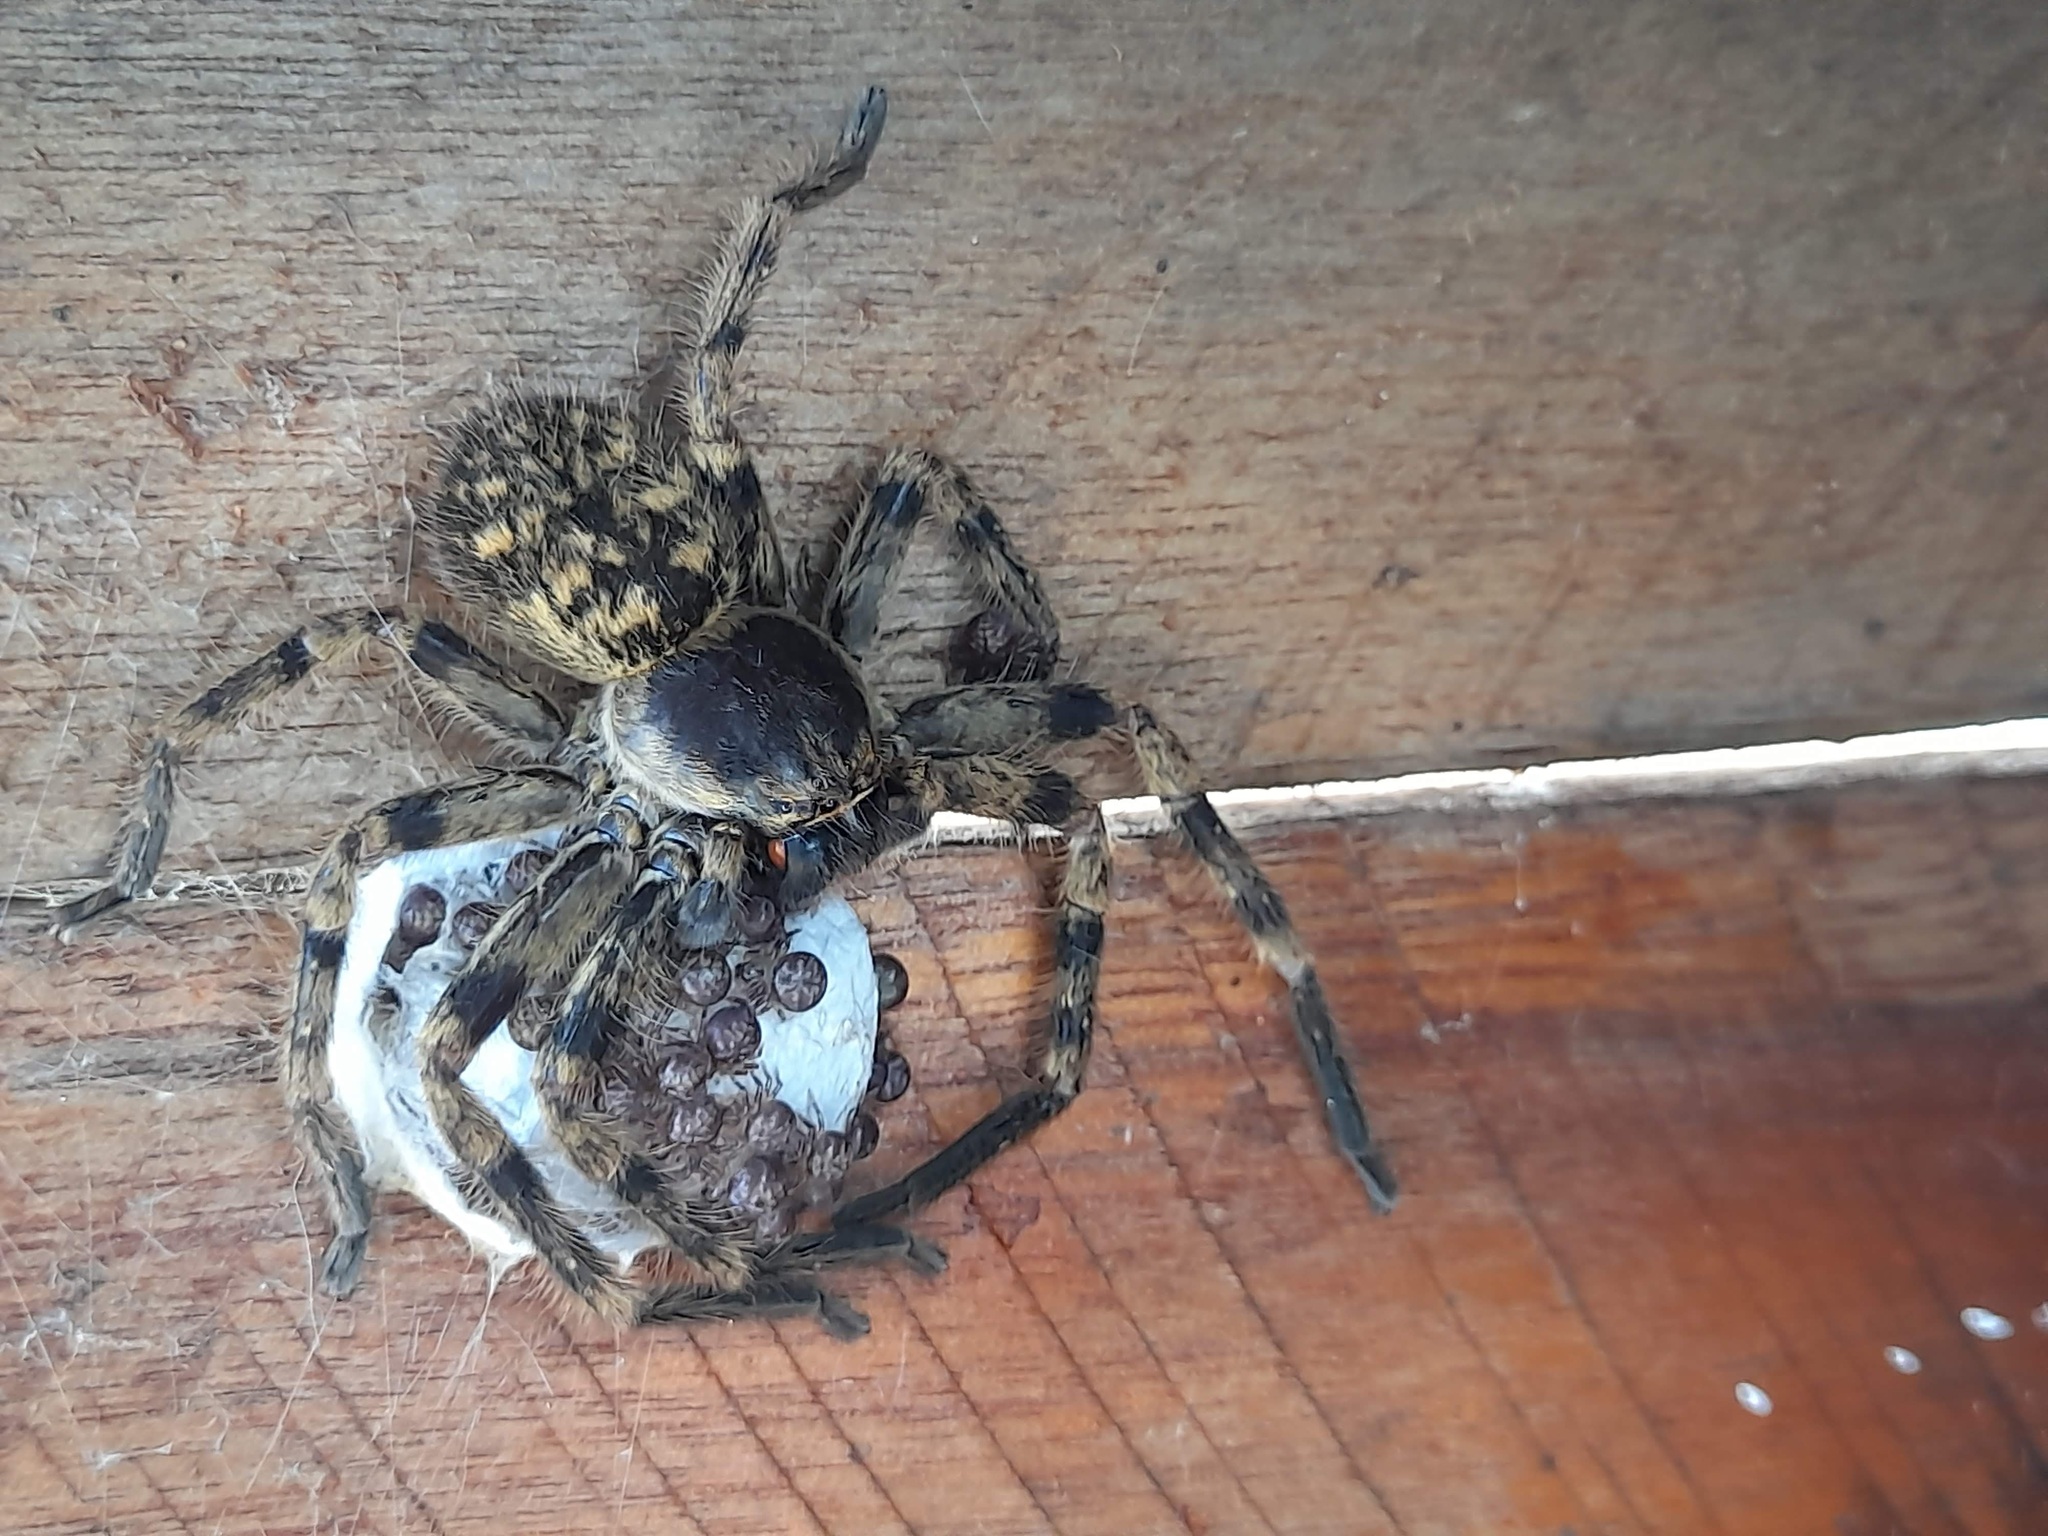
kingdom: Animalia
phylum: Arthropoda
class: Arachnida
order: Araneae
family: Sparassidae
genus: Polybetes
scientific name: Polybetes pythagoricus
